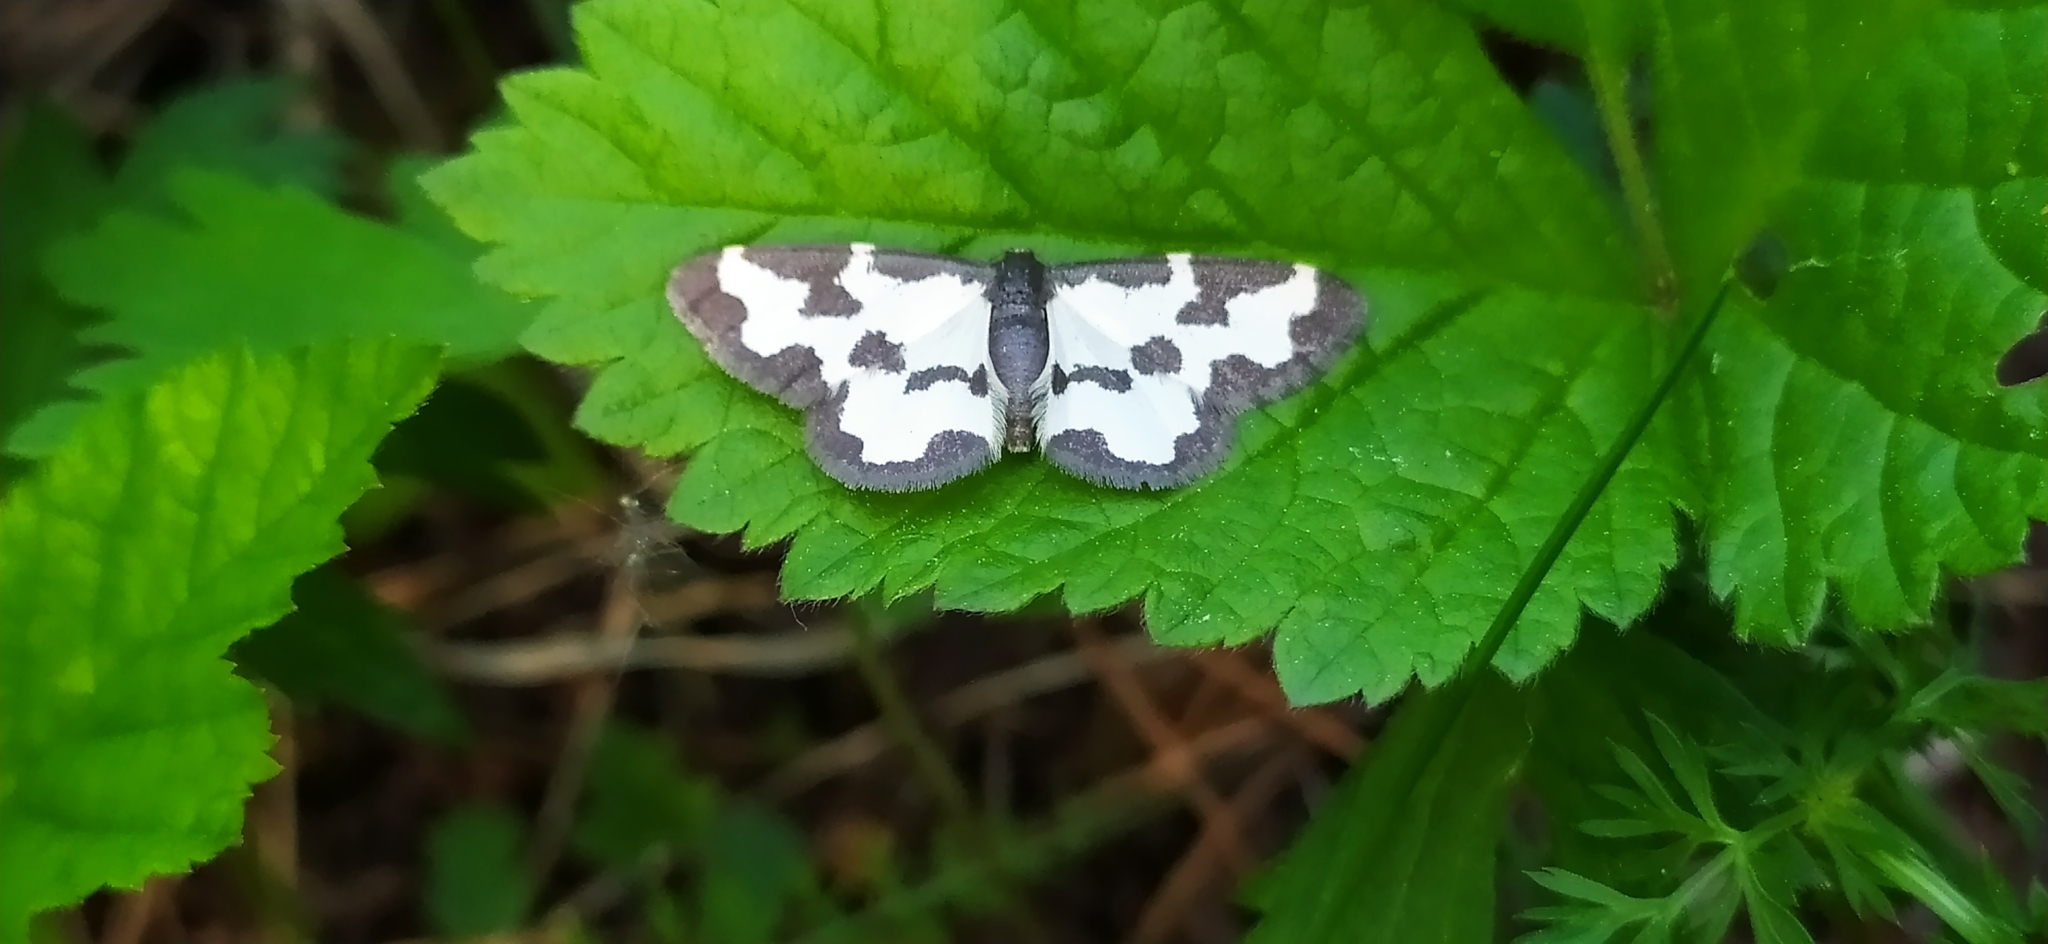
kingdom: Animalia
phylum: Arthropoda
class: Insecta
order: Lepidoptera
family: Geometridae
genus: Lomaspilis
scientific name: Lomaspilis marginata
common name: Clouded border
